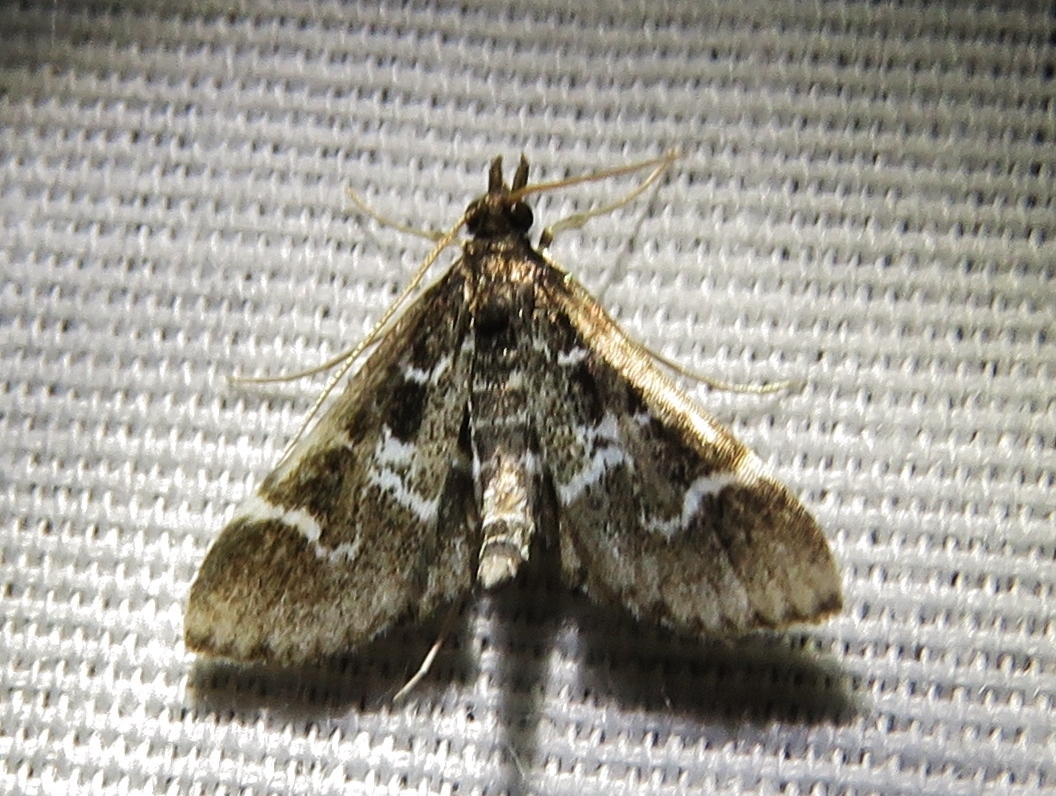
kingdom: Animalia
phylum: Arthropoda
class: Insecta
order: Lepidoptera
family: Crambidae
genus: Diasemiodes
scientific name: Diasemiodes janassialis
